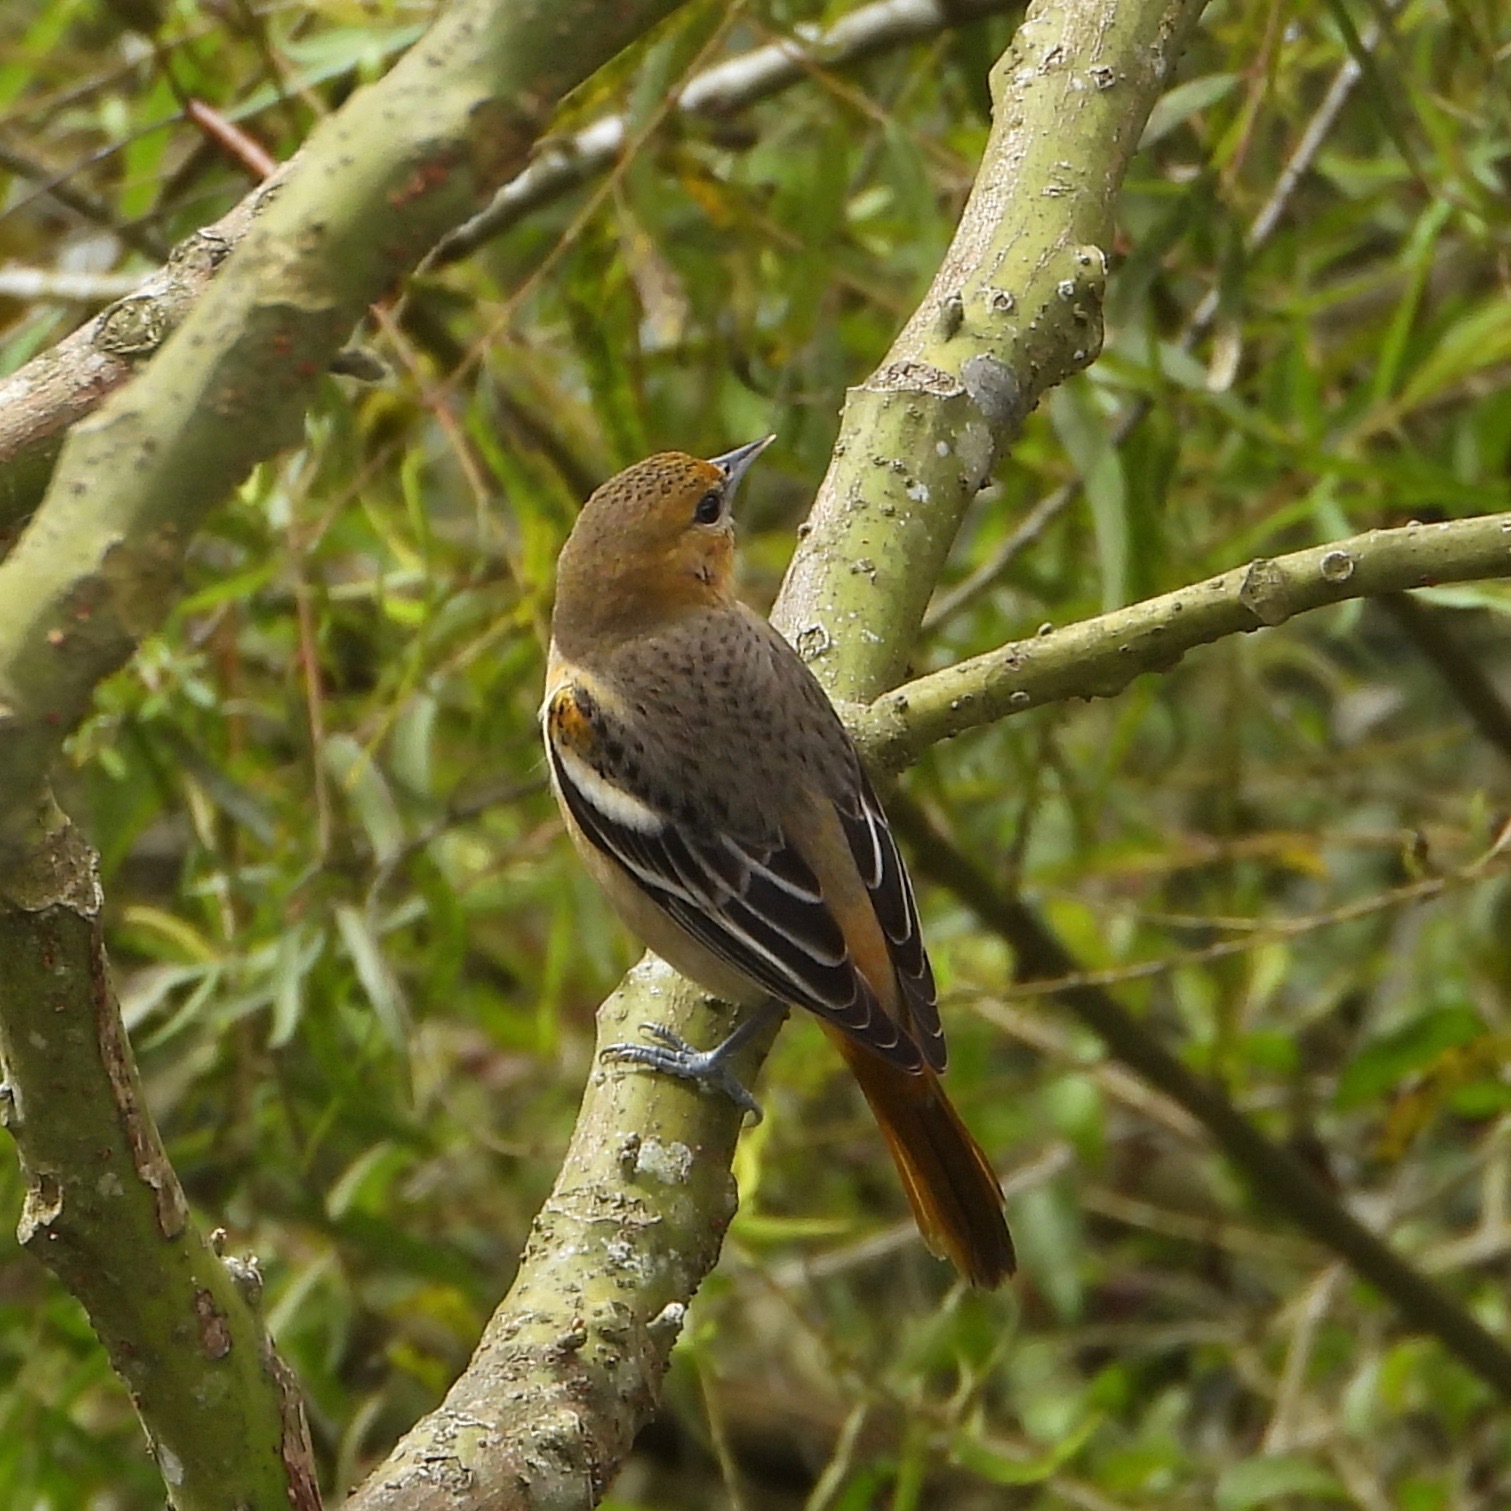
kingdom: Animalia
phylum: Chordata
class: Aves
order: Passeriformes
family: Icteridae
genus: Icterus
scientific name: Icterus galbula
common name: Baltimore oriole
